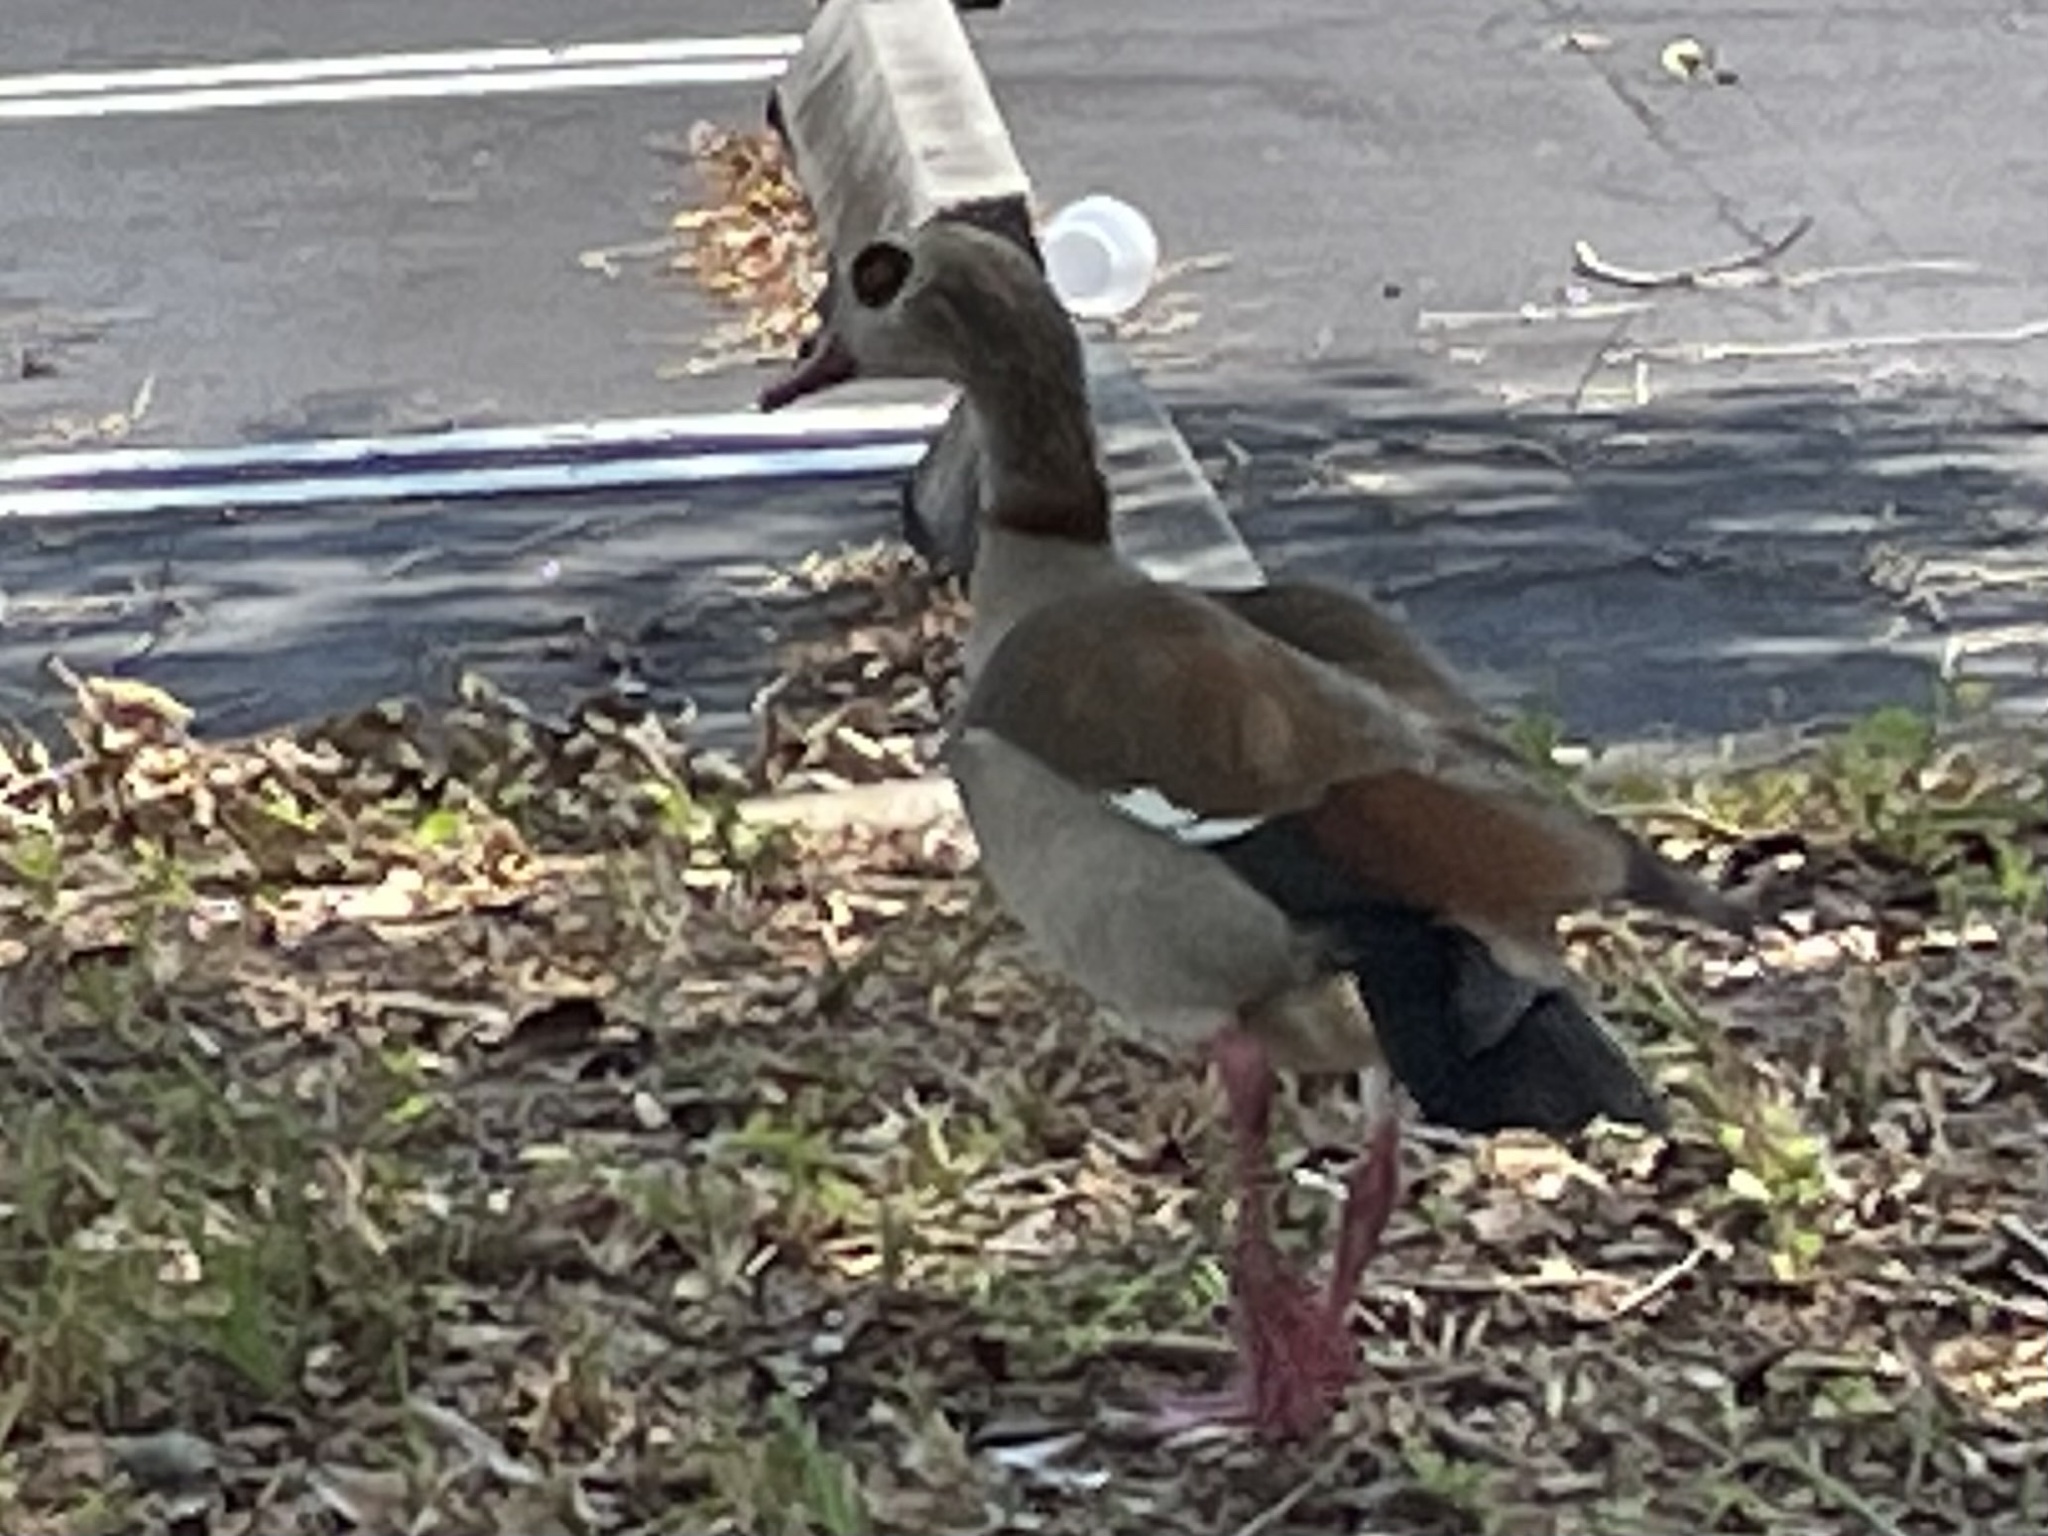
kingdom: Animalia
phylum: Chordata
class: Aves
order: Anseriformes
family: Anatidae
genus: Alopochen
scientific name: Alopochen aegyptiaca
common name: Egyptian goose
